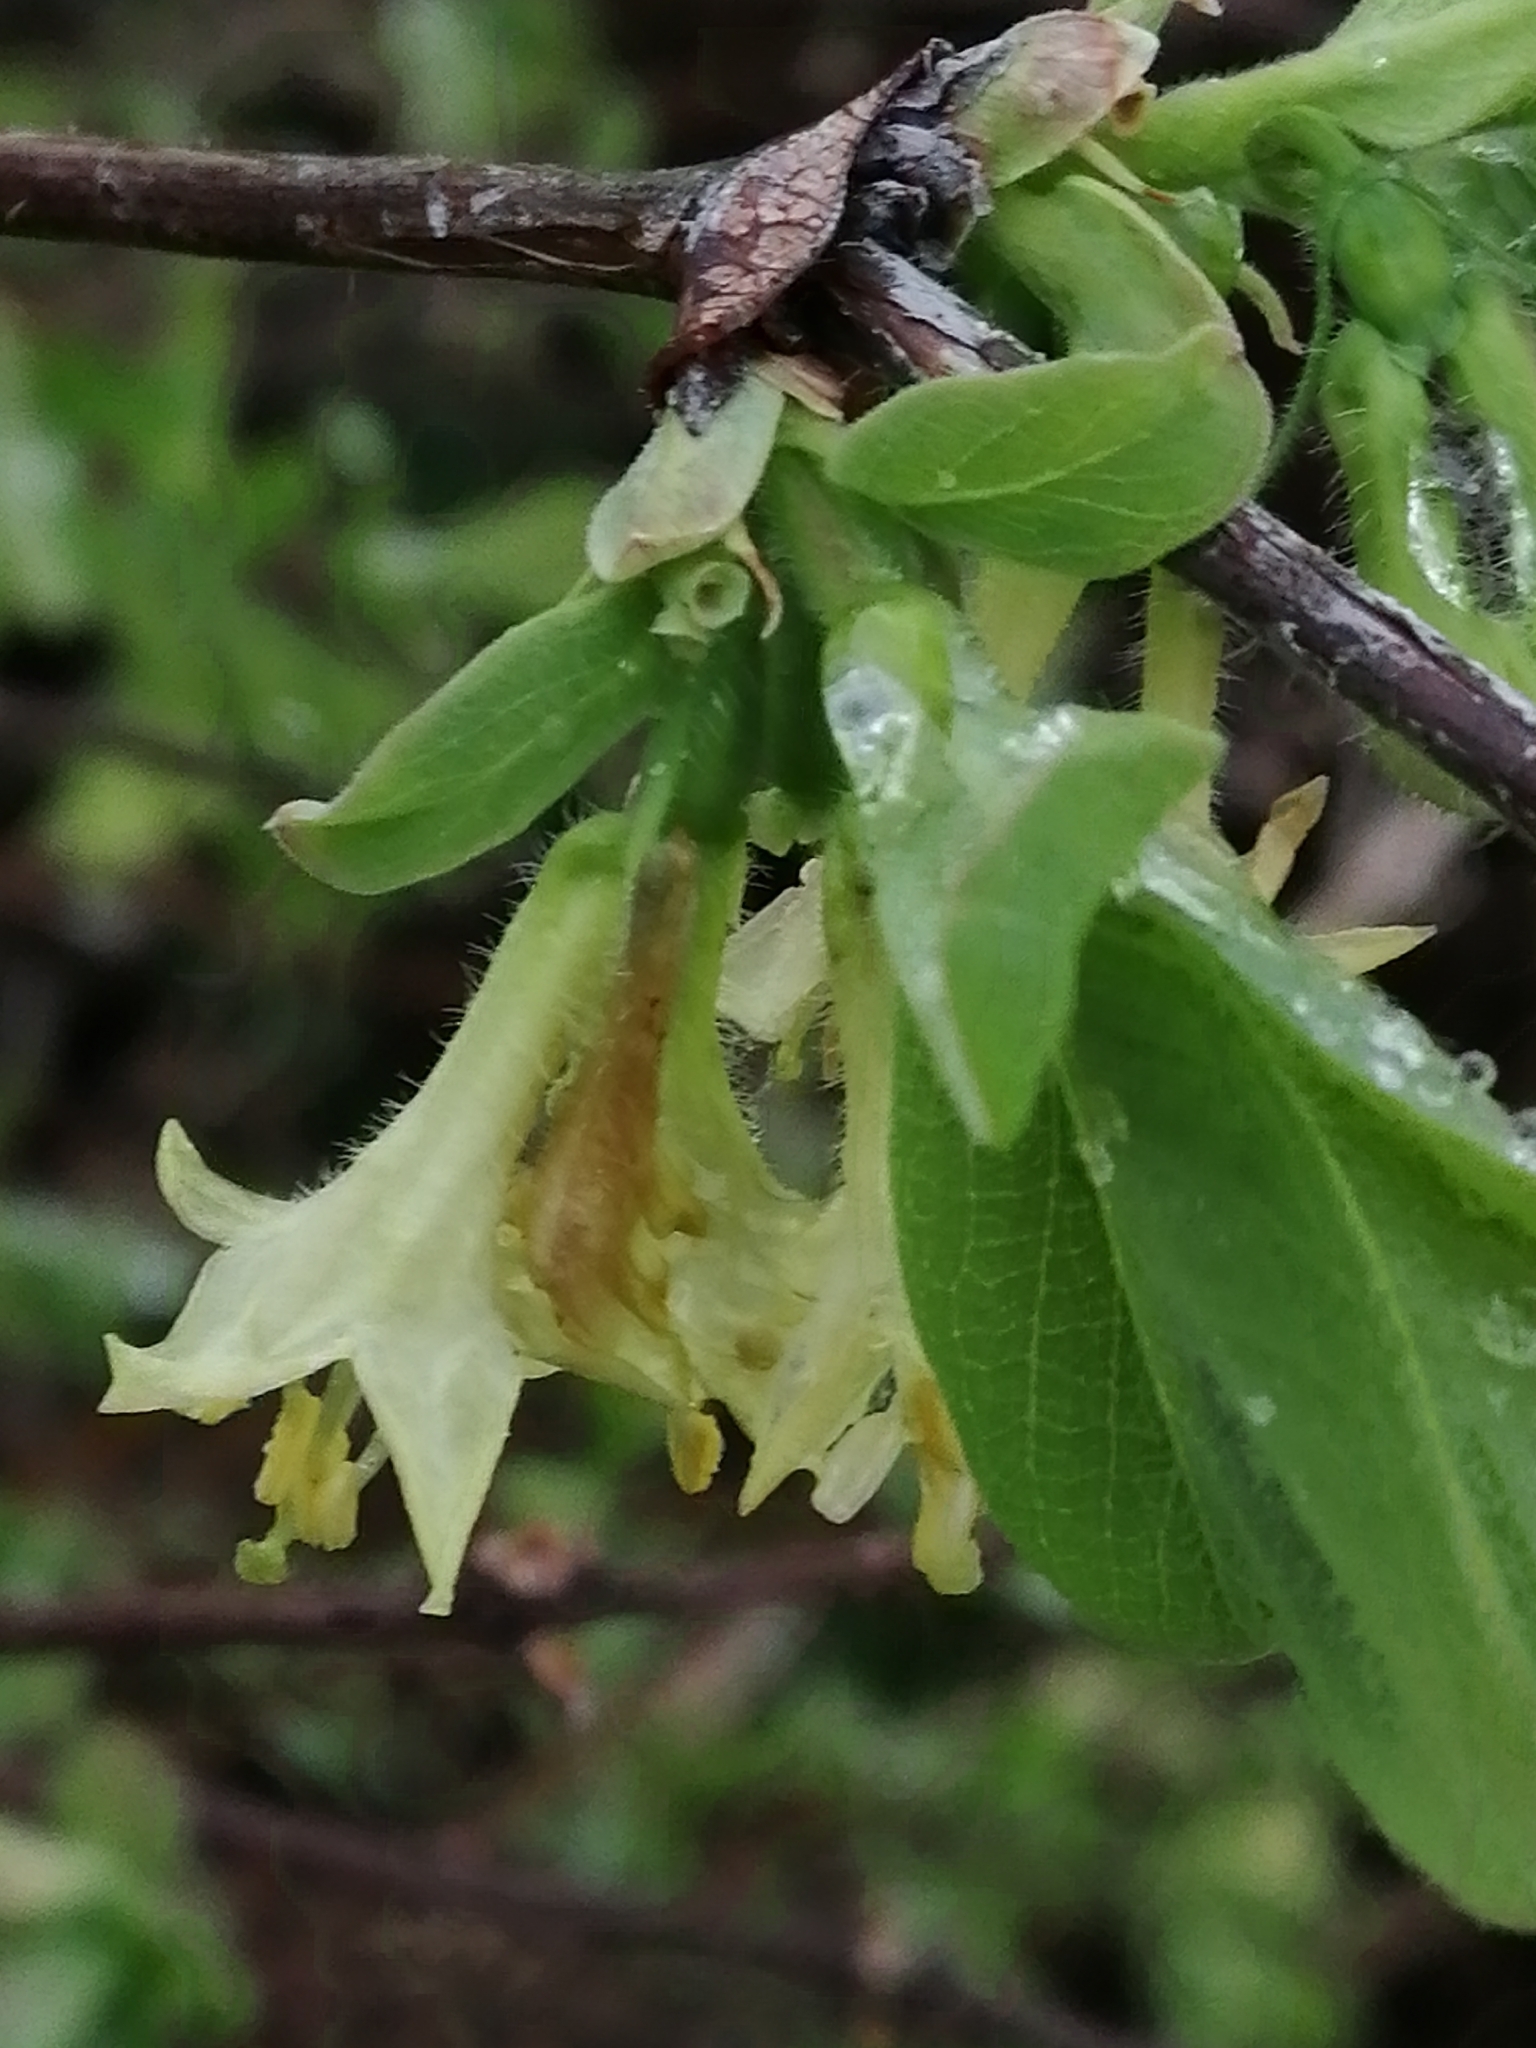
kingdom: Plantae
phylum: Tracheophyta
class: Magnoliopsida
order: Dipsacales
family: Caprifoliaceae
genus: Lonicera
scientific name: Lonicera caerulea
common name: Blue honeysuckle
